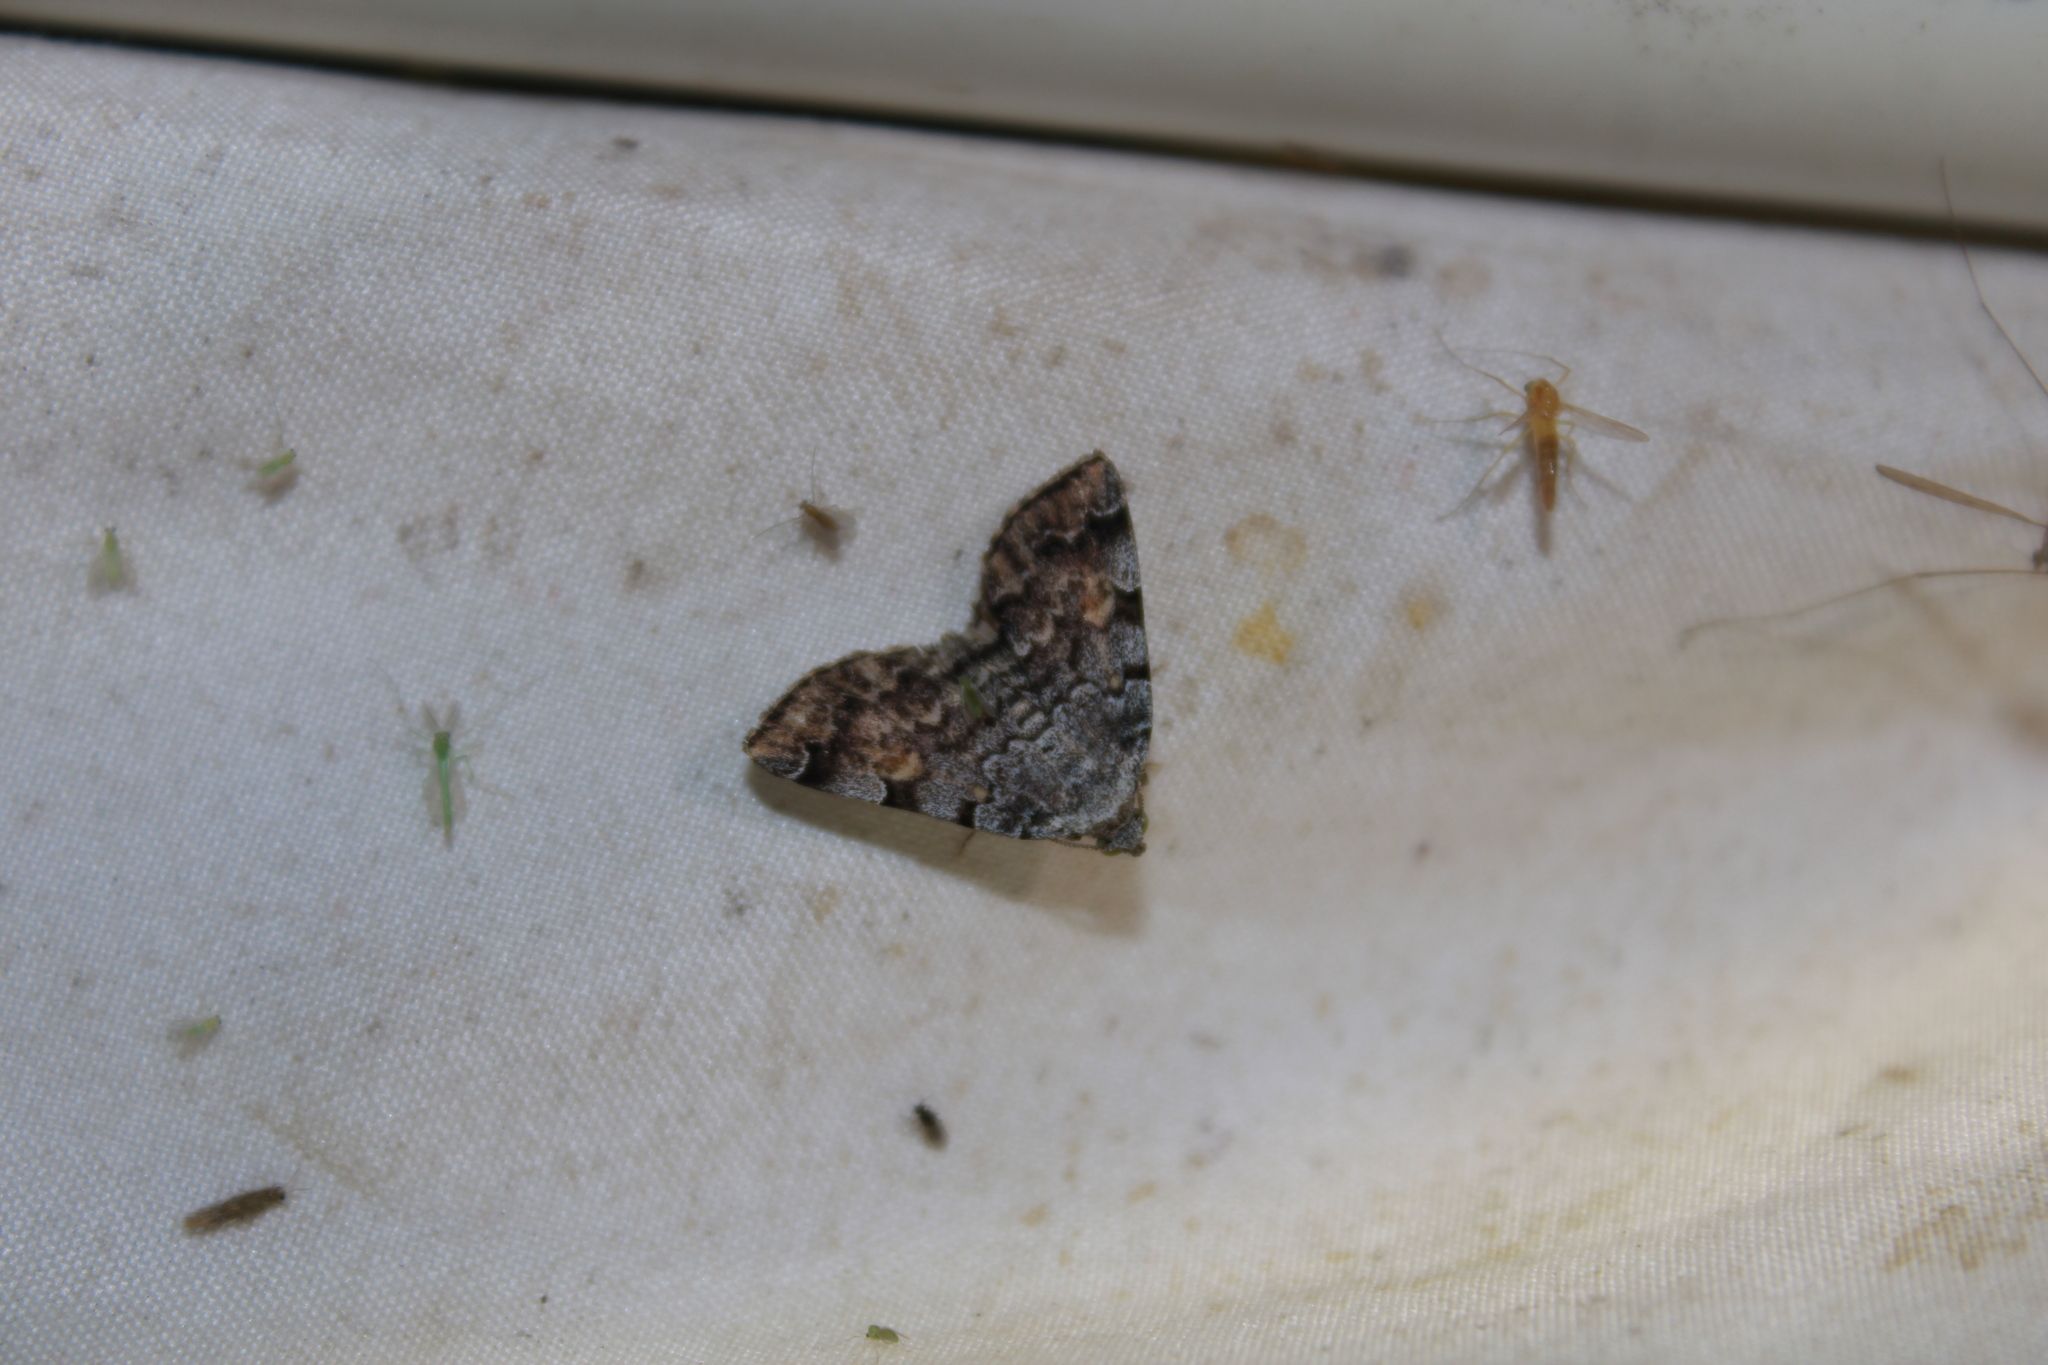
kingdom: Animalia
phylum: Arthropoda
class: Insecta
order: Lepidoptera
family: Erebidae
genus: Idia
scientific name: Idia americalis
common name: American idia moth
